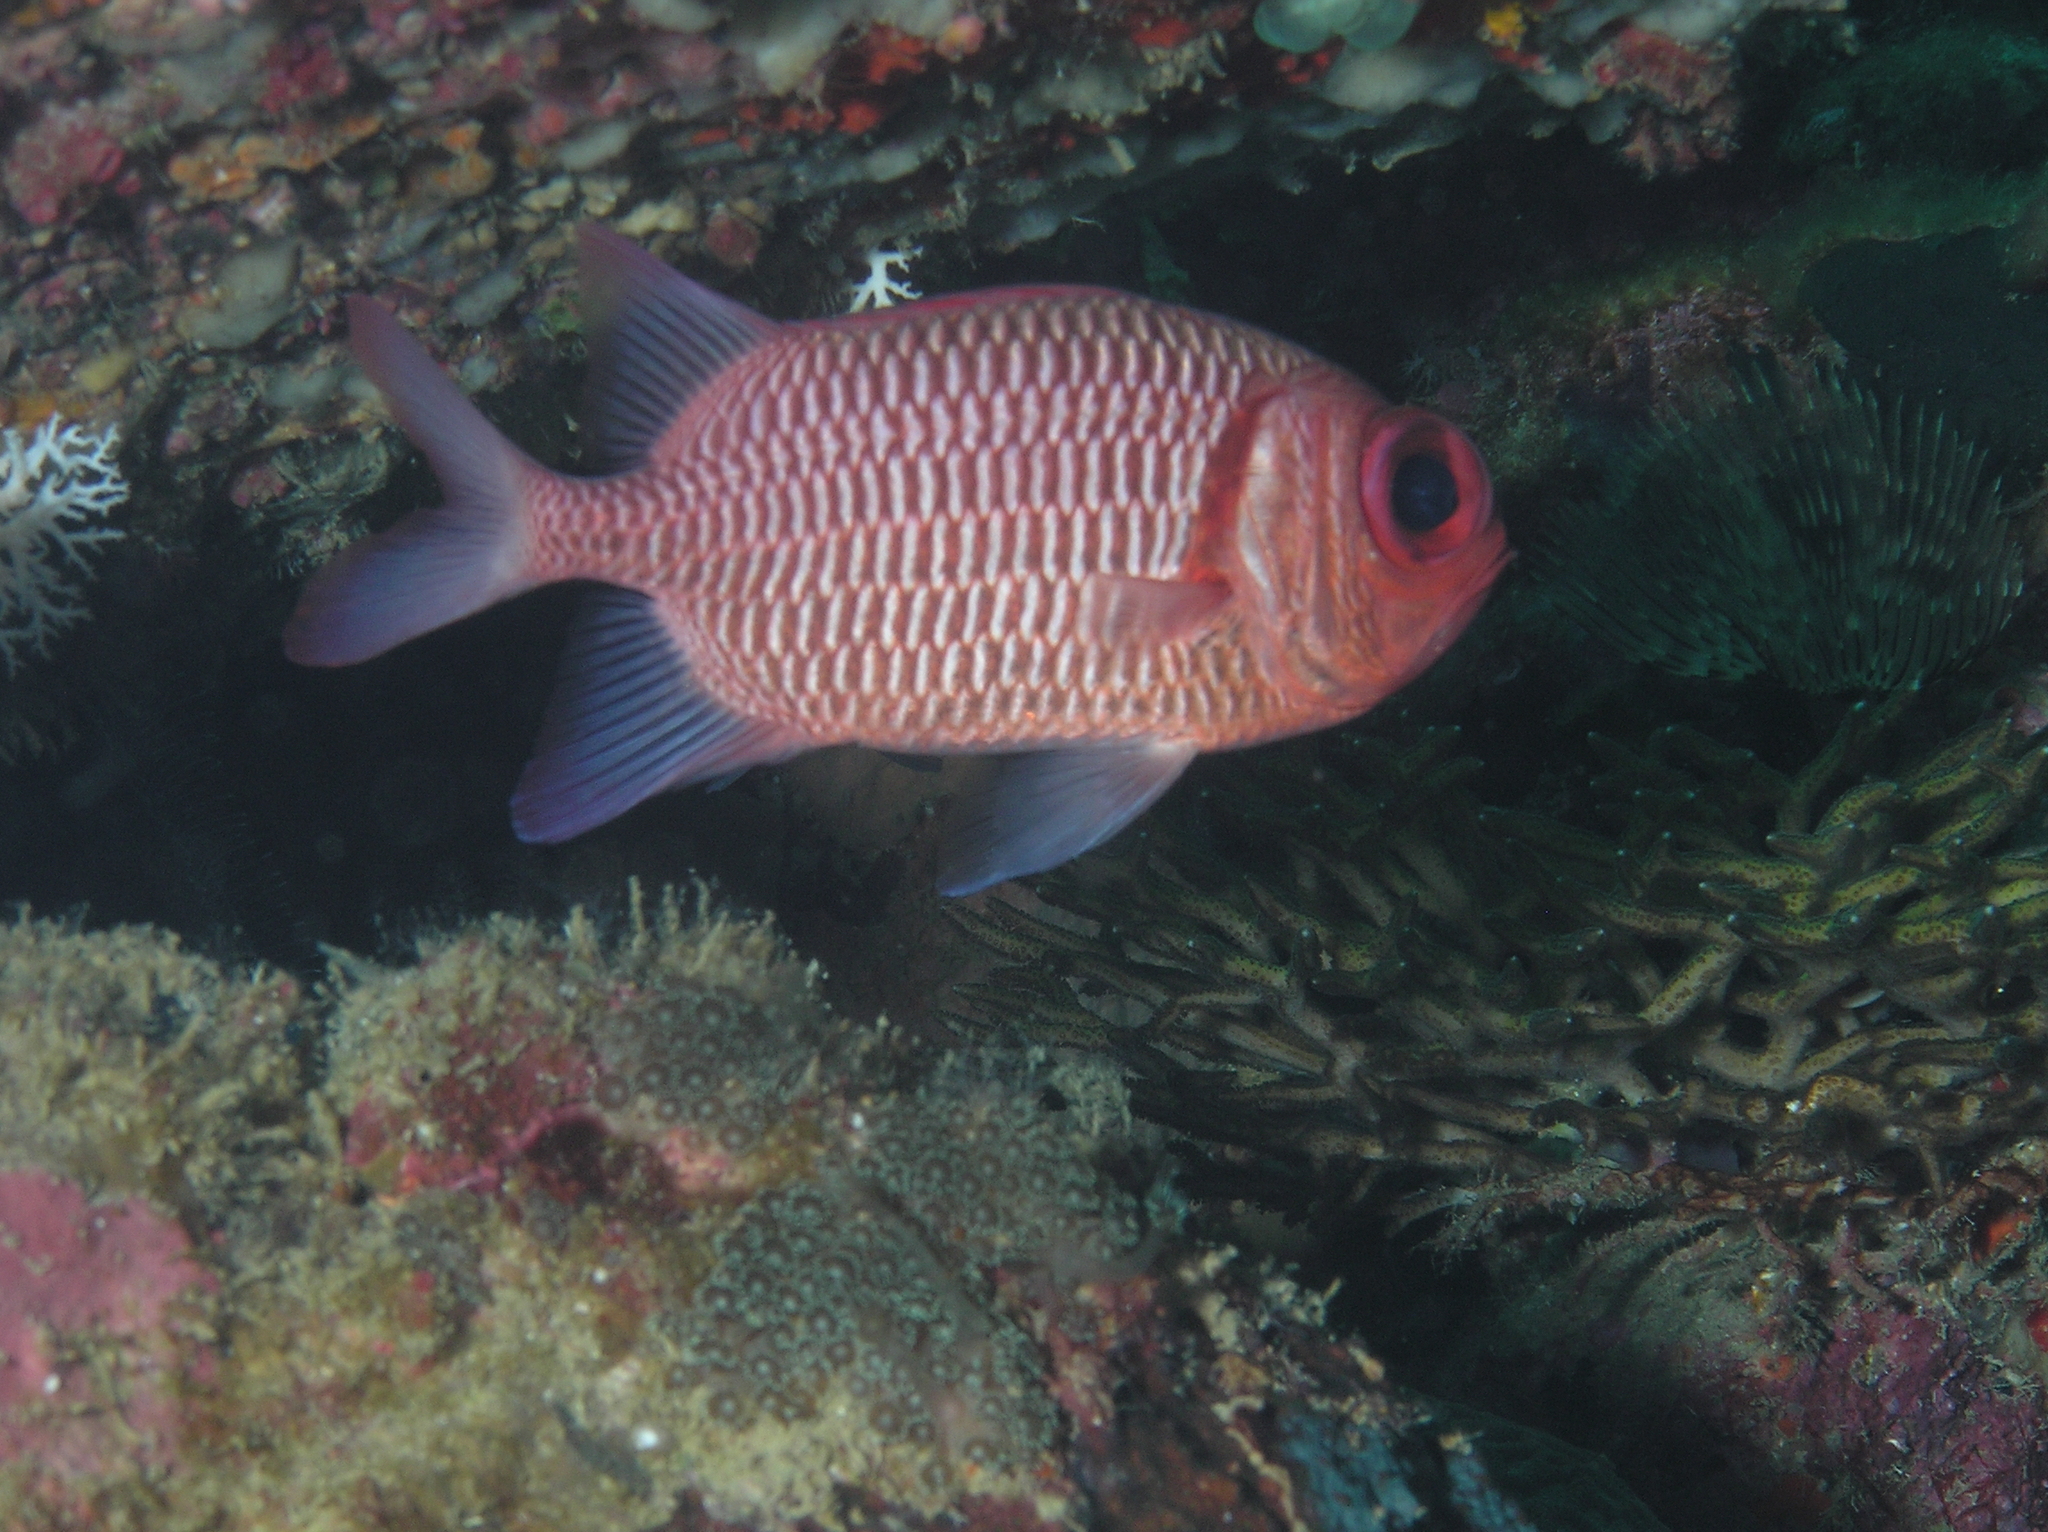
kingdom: Animalia
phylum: Chordata
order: Beryciformes
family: Holocentridae
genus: Myripristis
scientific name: Myripristis hexagona
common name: Blacktip soldierfish
